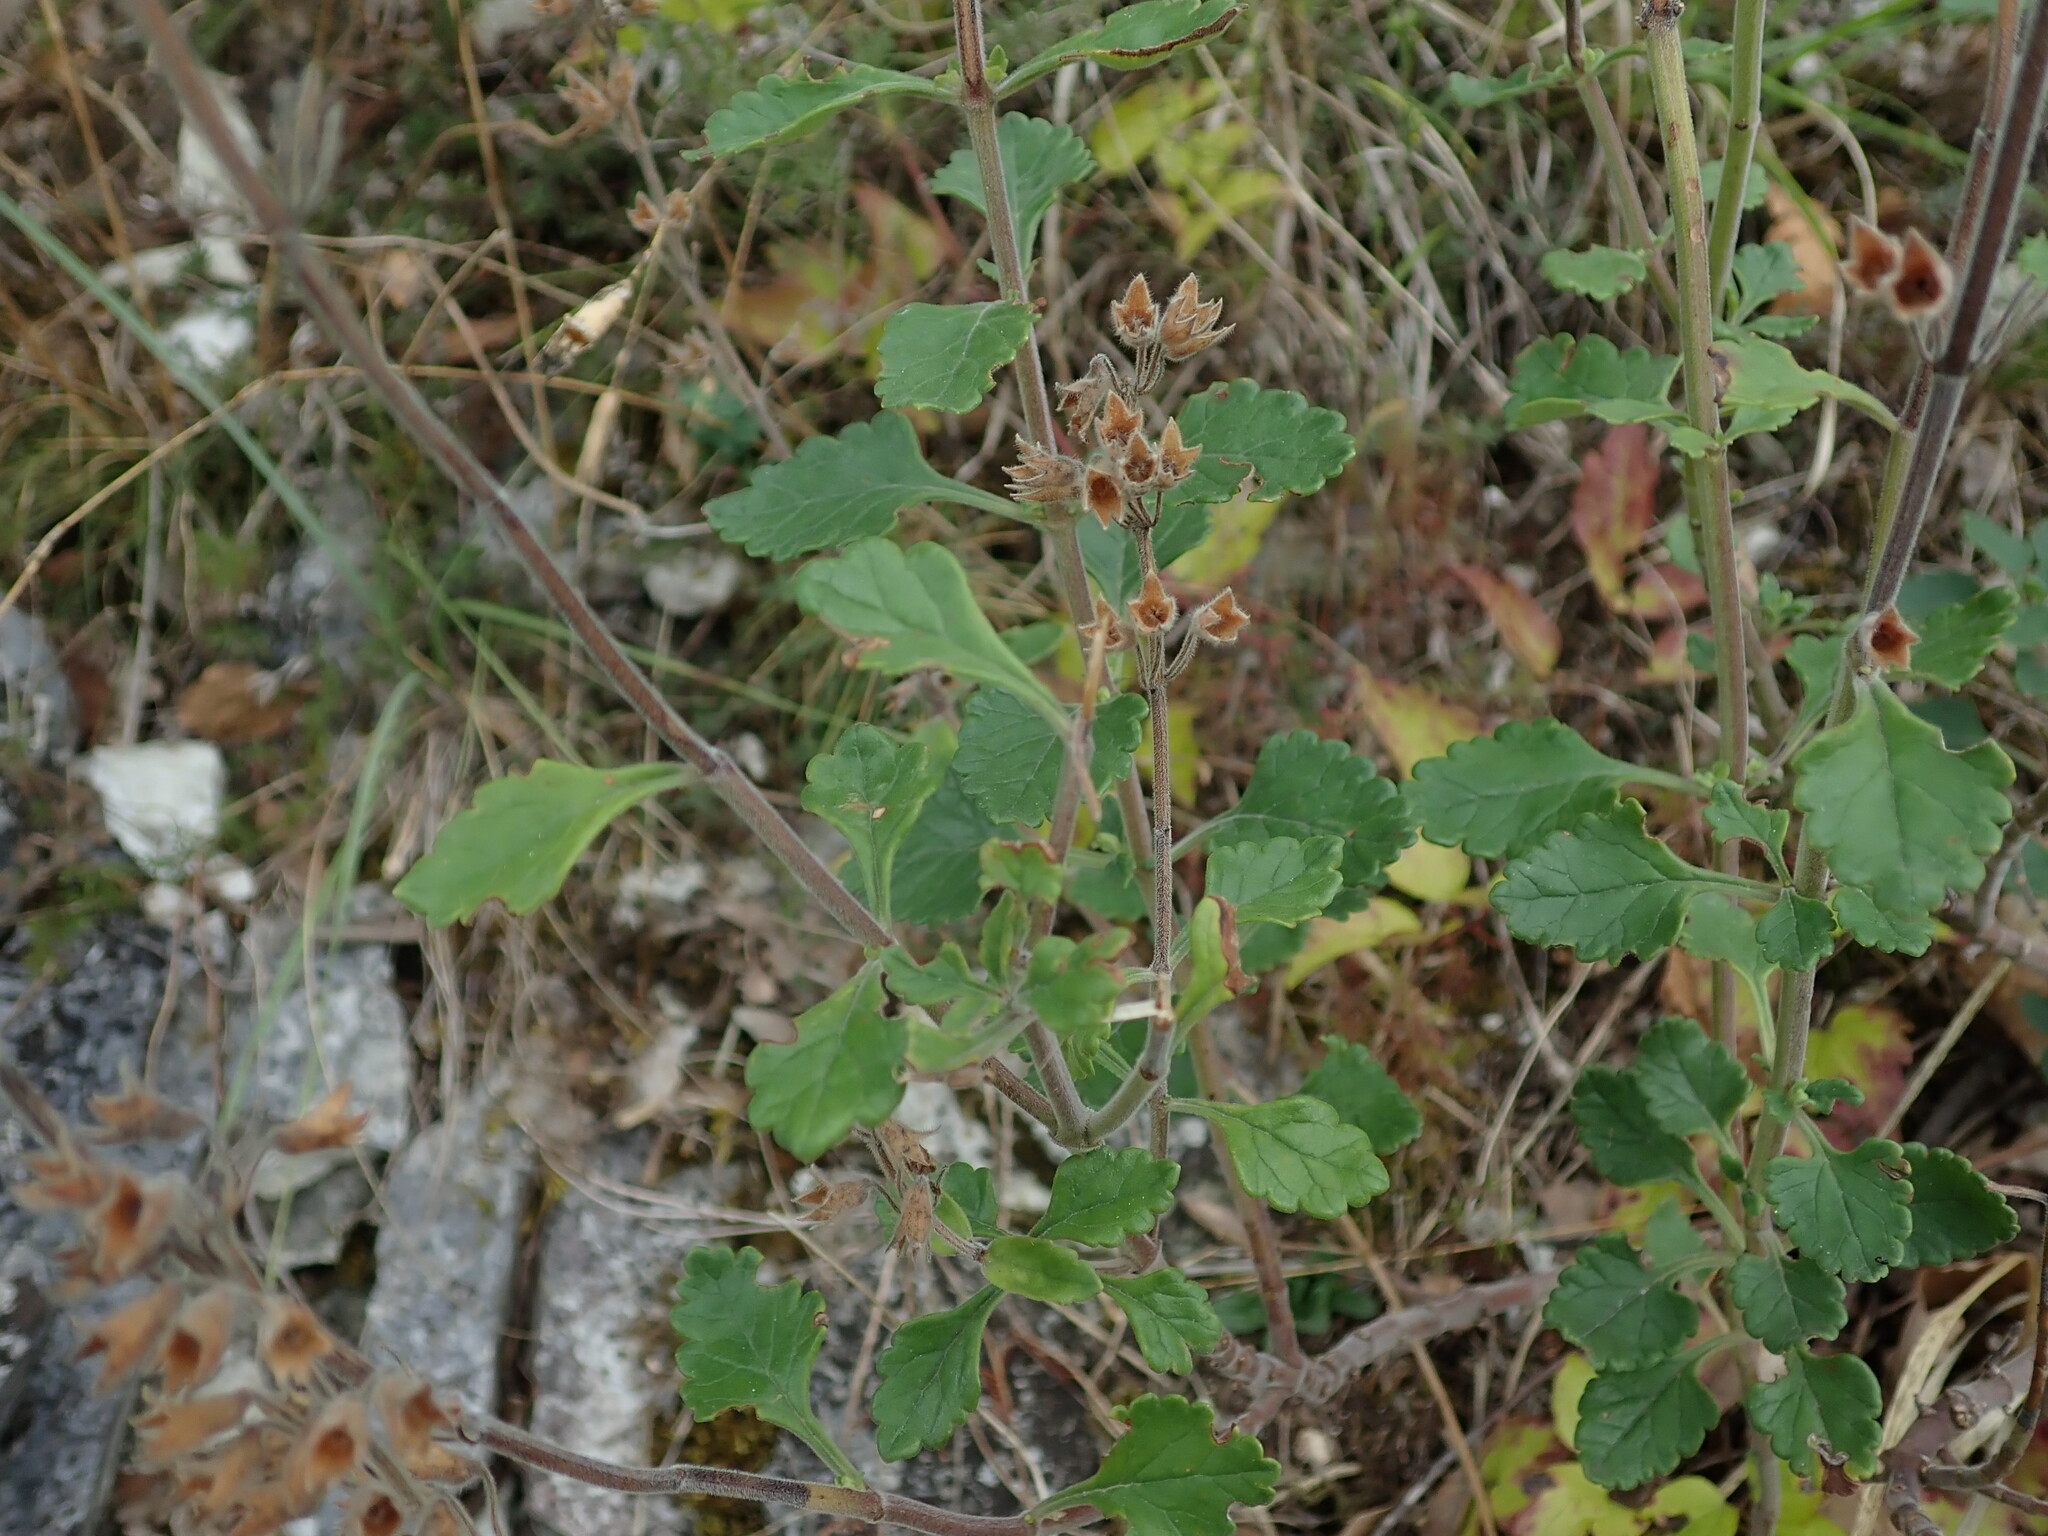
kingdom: Plantae
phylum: Tracheophyta
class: Magnoliopsida
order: Lamiales
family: Lamiaceae
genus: Teucrium
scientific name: Teucrium flavum
